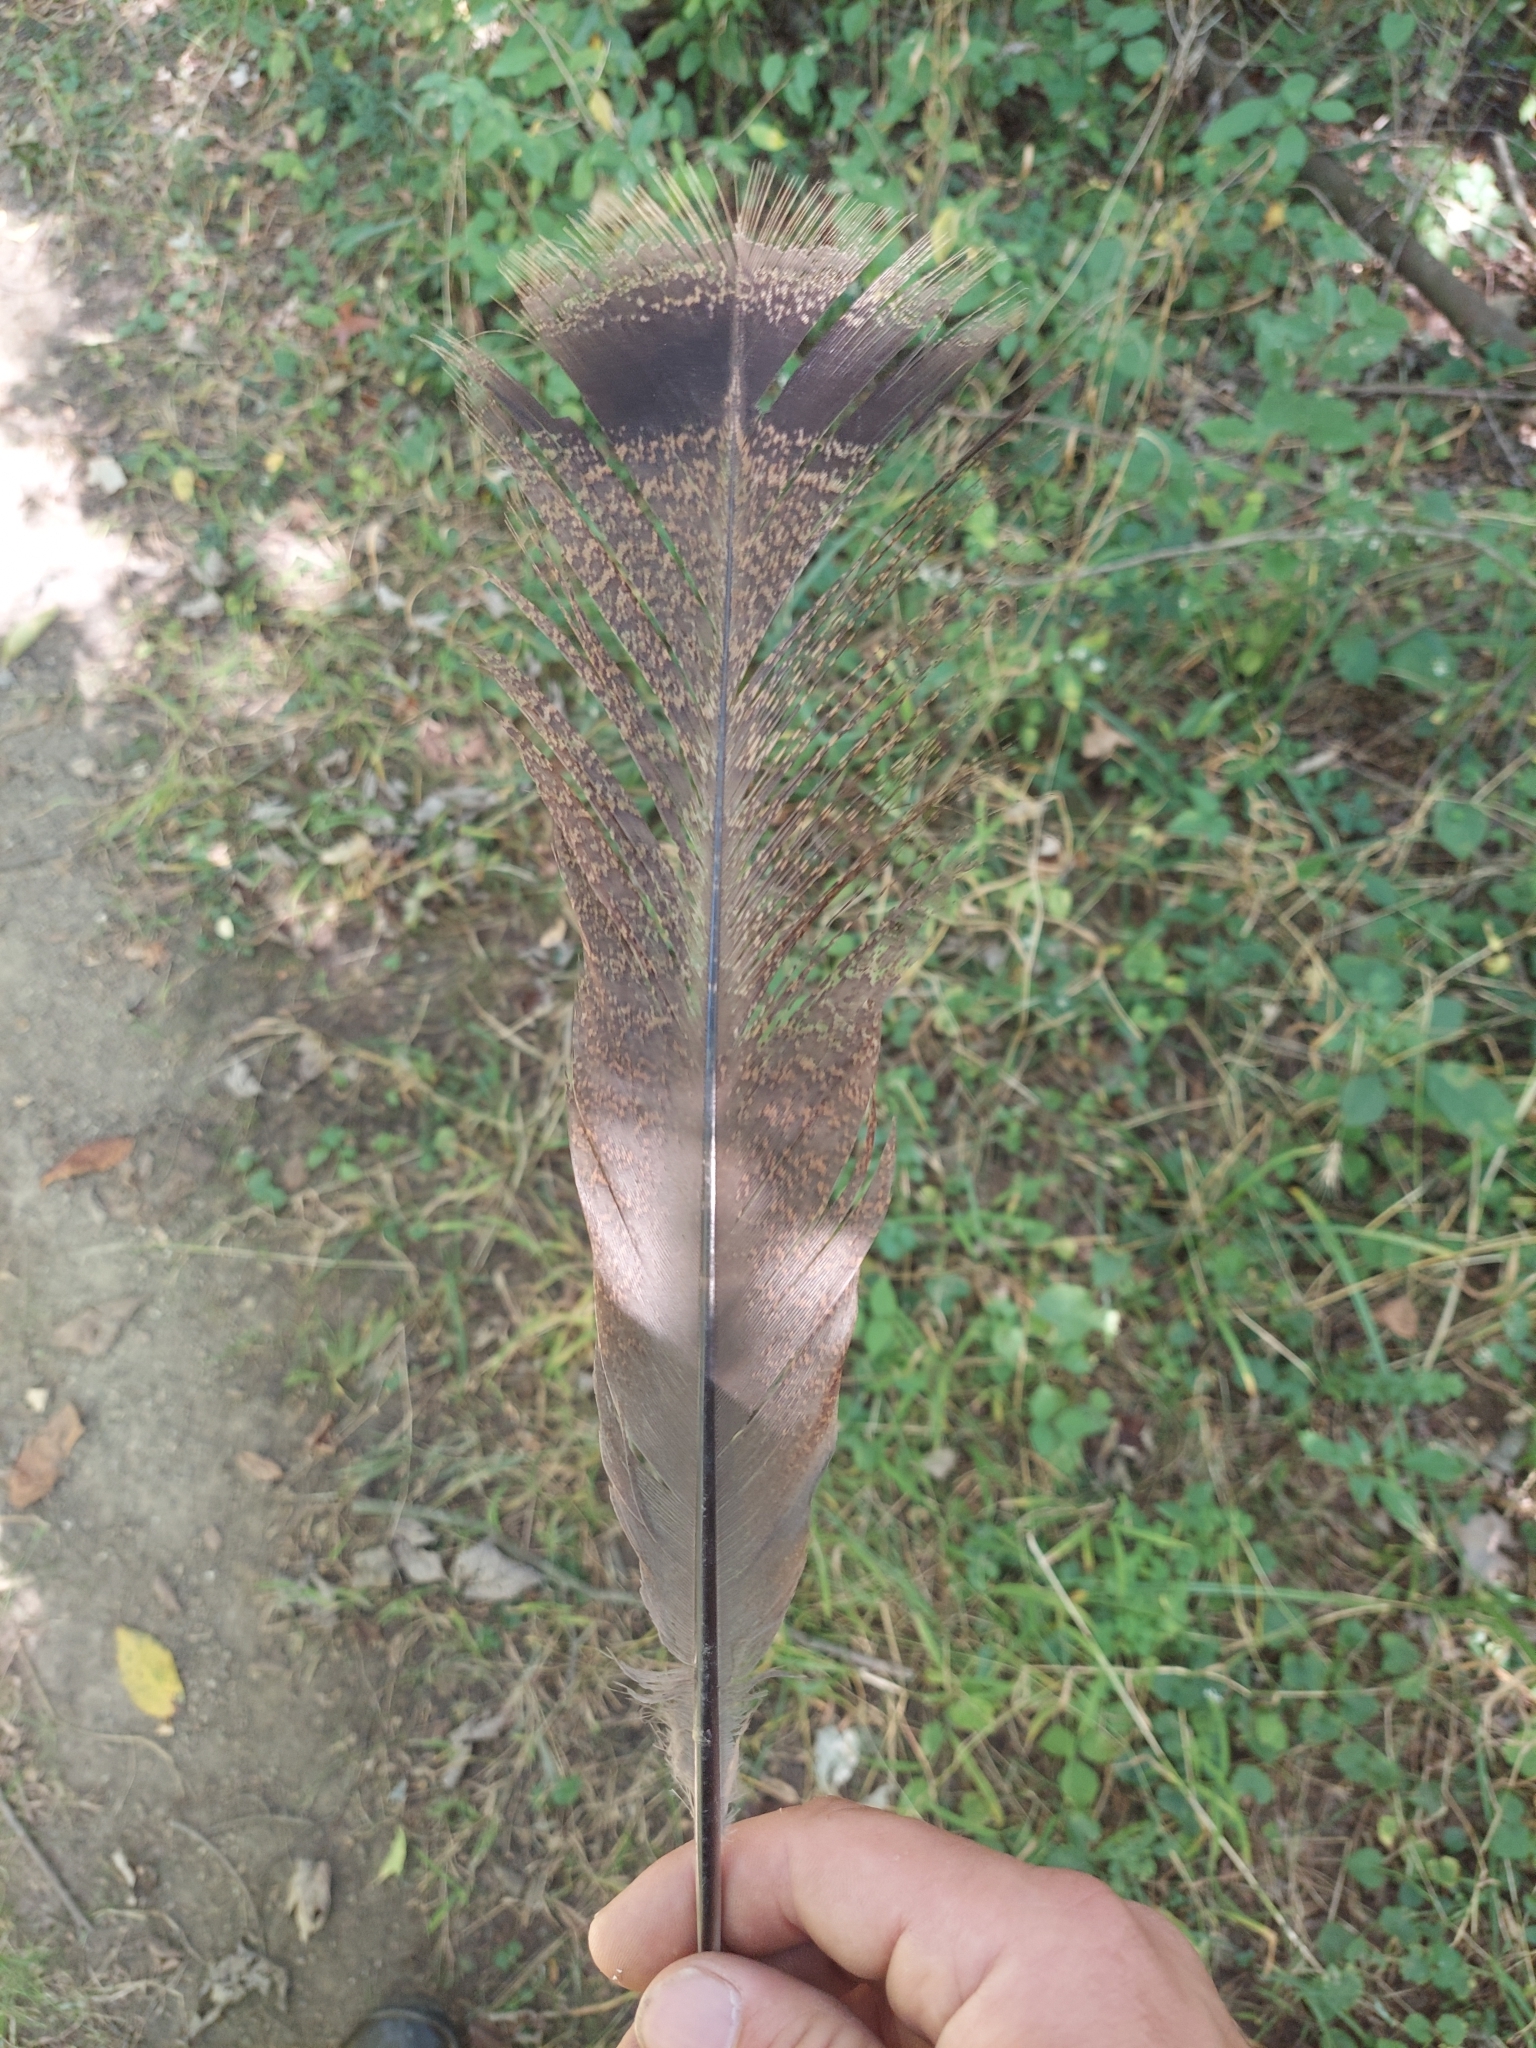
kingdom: Animalia
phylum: Chordata
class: Aves
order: Galliformes
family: Phasianidae
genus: Meleagris
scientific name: Meleagris gallopavo
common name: Wild turkey
